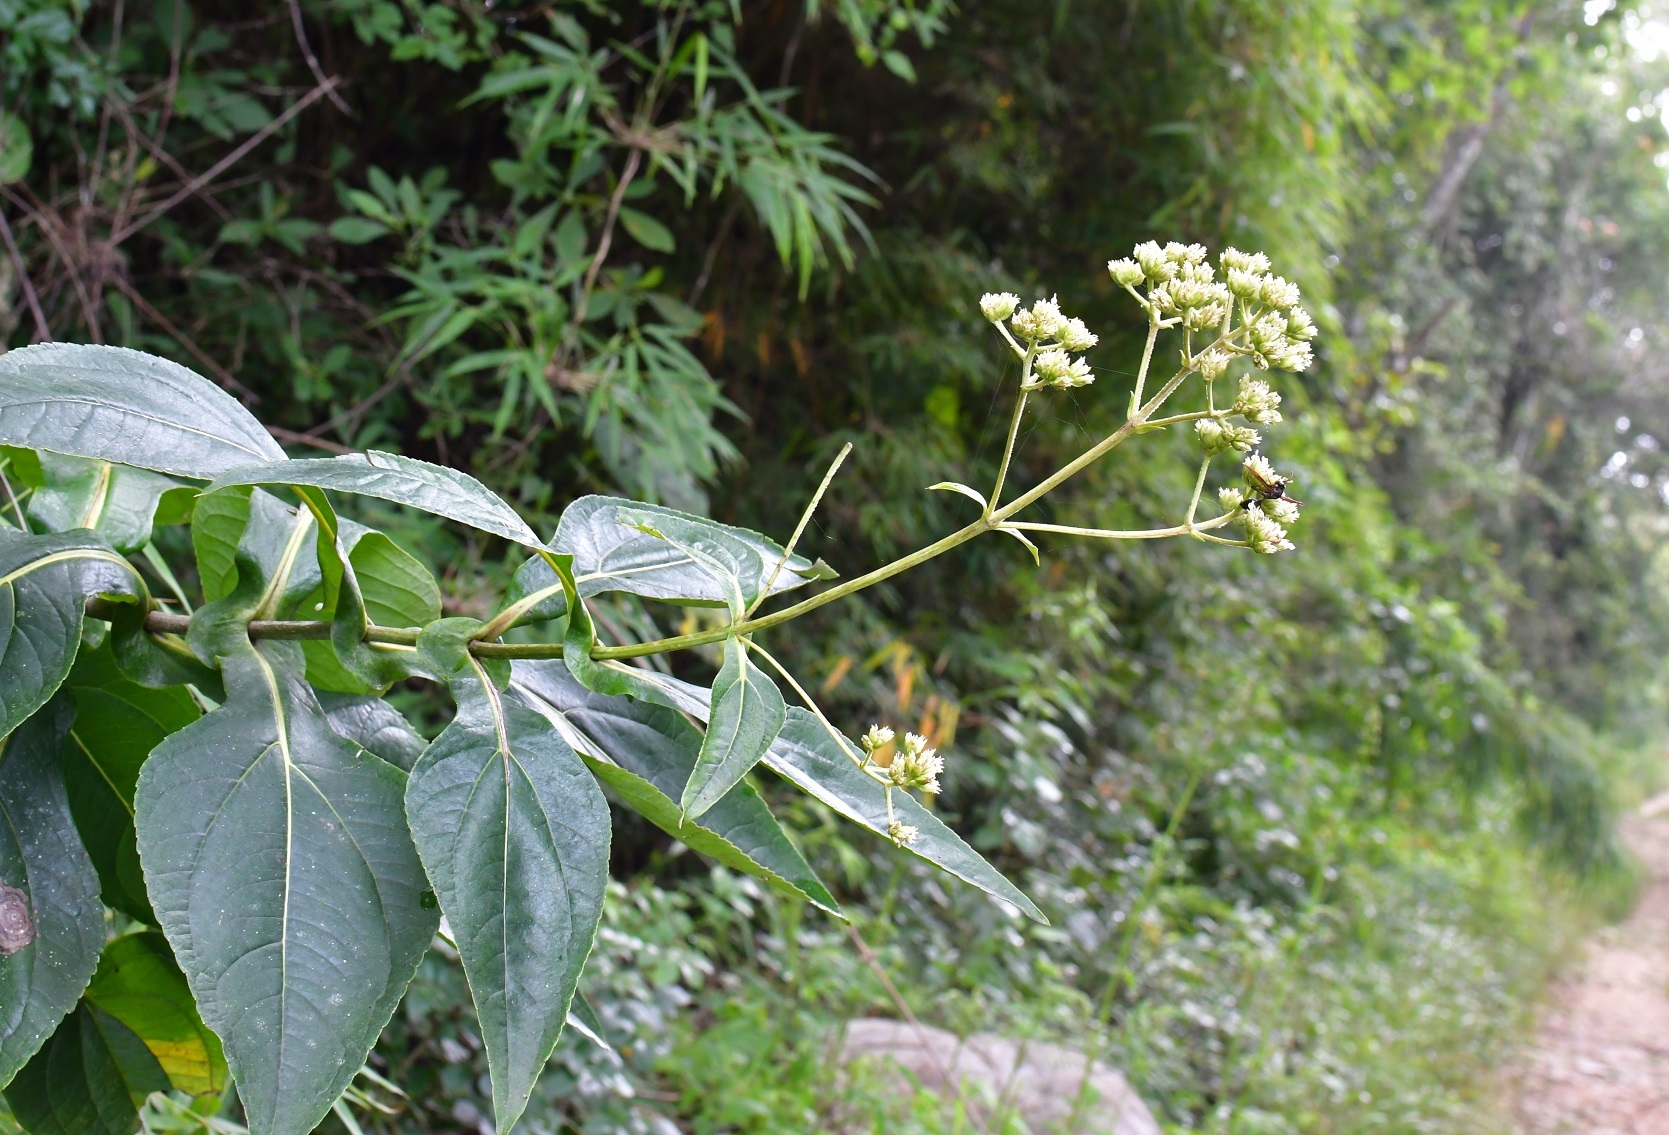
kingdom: Plantae
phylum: Tracheophyta
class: Magnoliopsida
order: Asterales
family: Asteraceae
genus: Desmanthodium
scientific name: Desmanthodium perfoliatum
